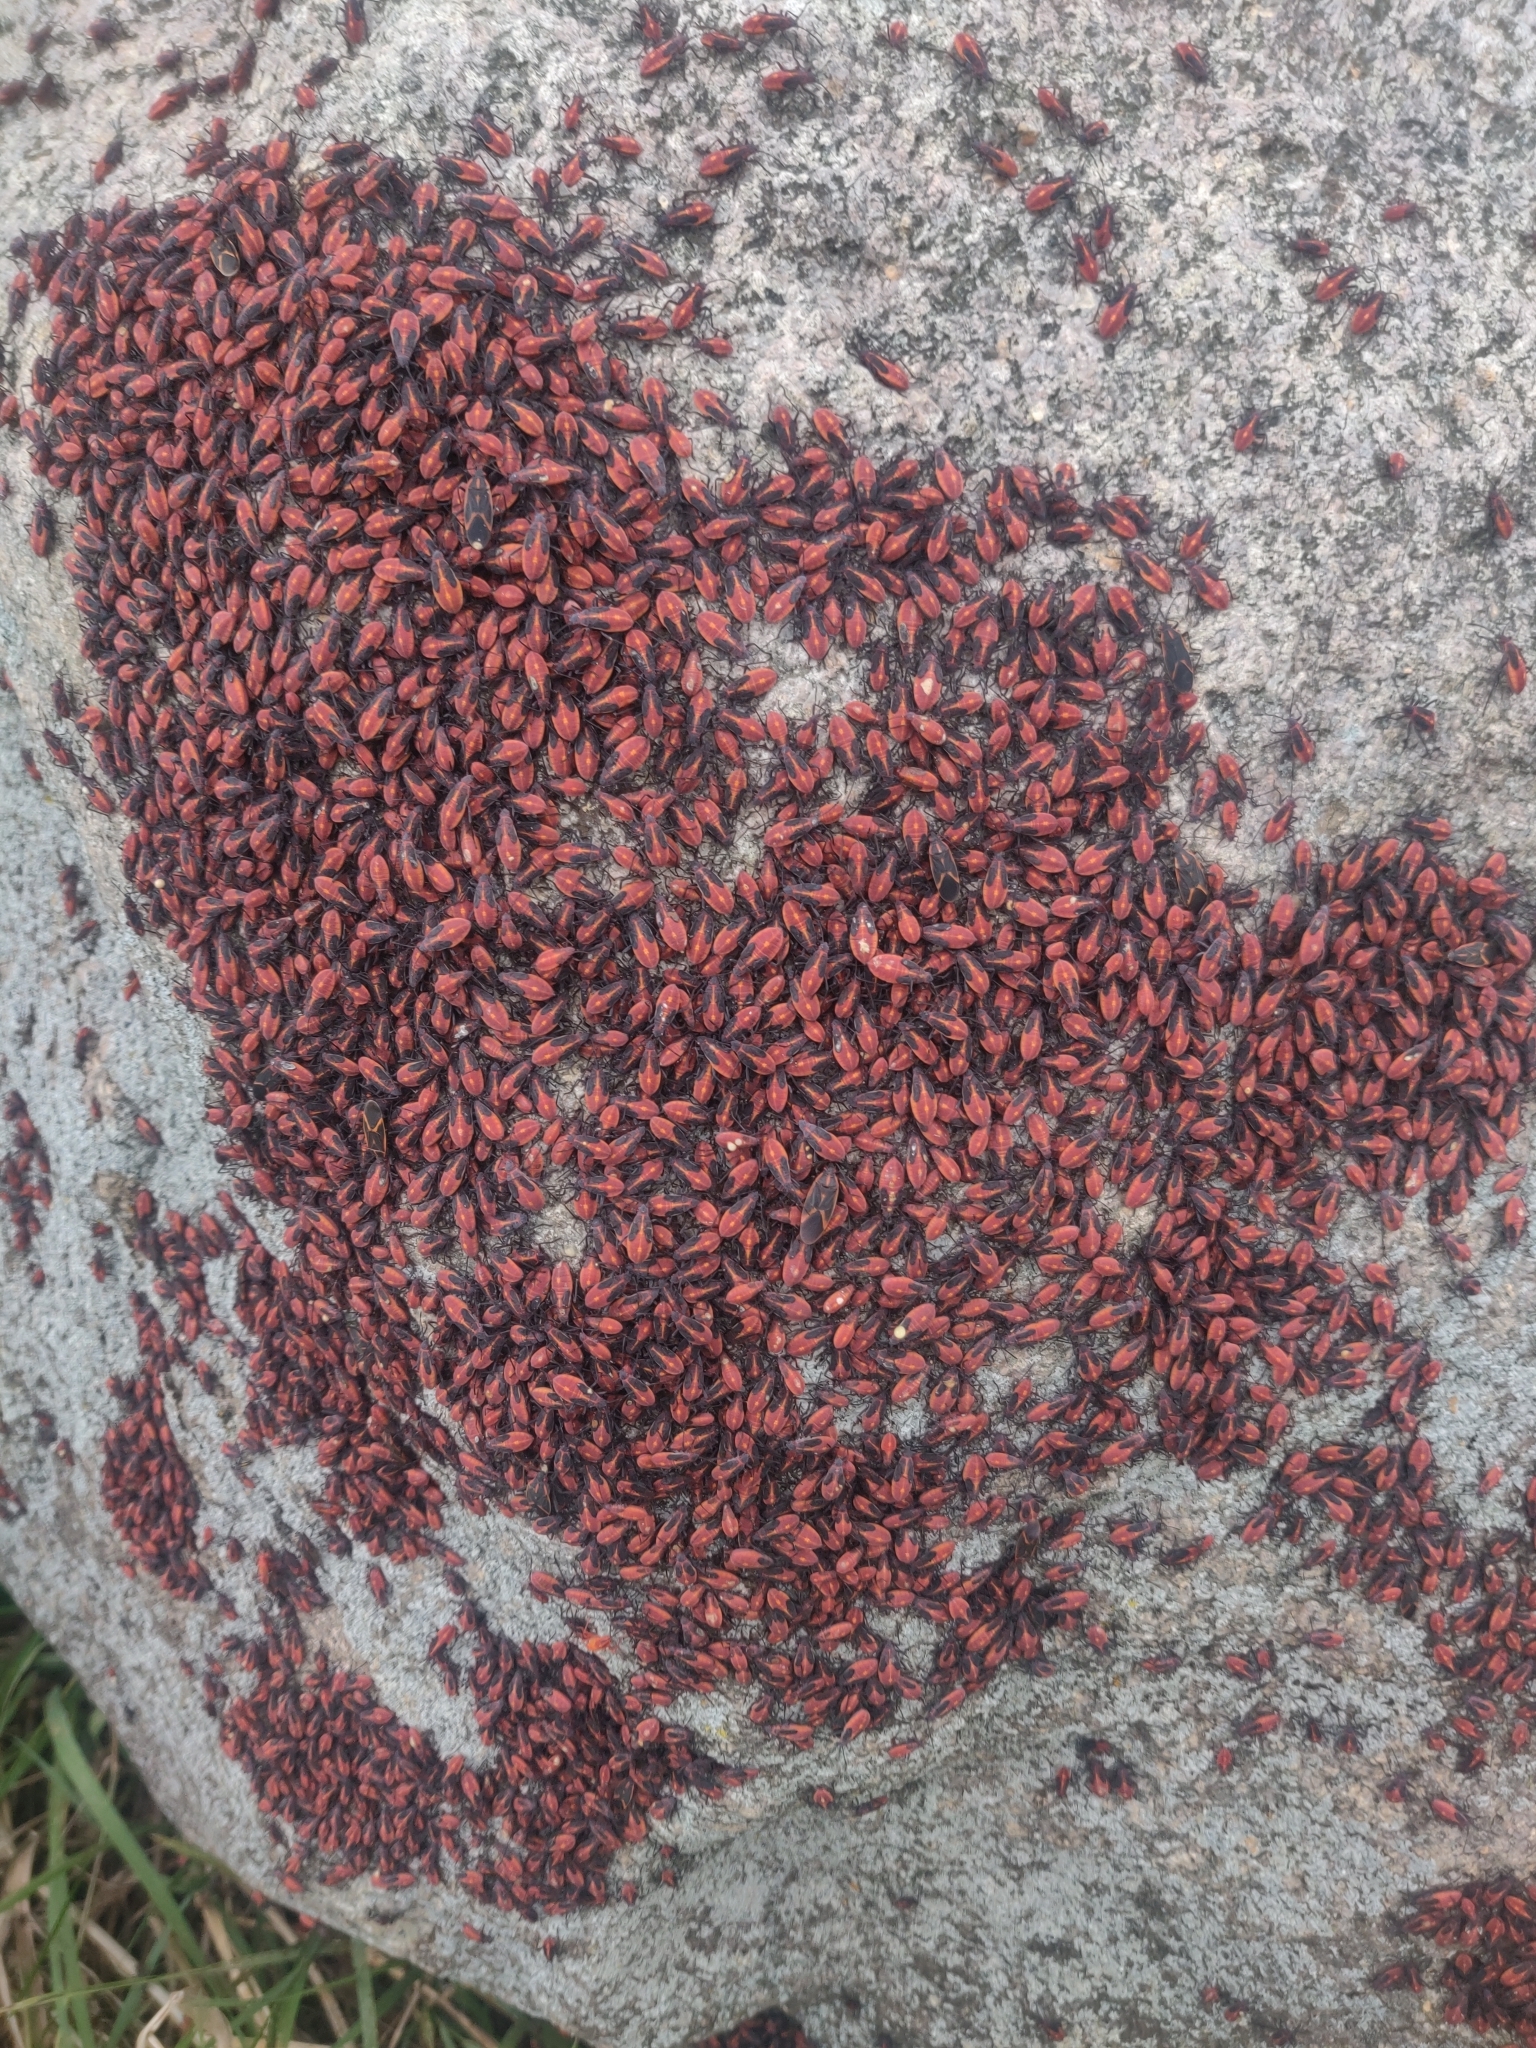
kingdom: Animalia
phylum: Arthropoda
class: Insecta
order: Hemiptera
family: Rhopalidae
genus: Boisea
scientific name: Boisea trivittata
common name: Boxelder bug
